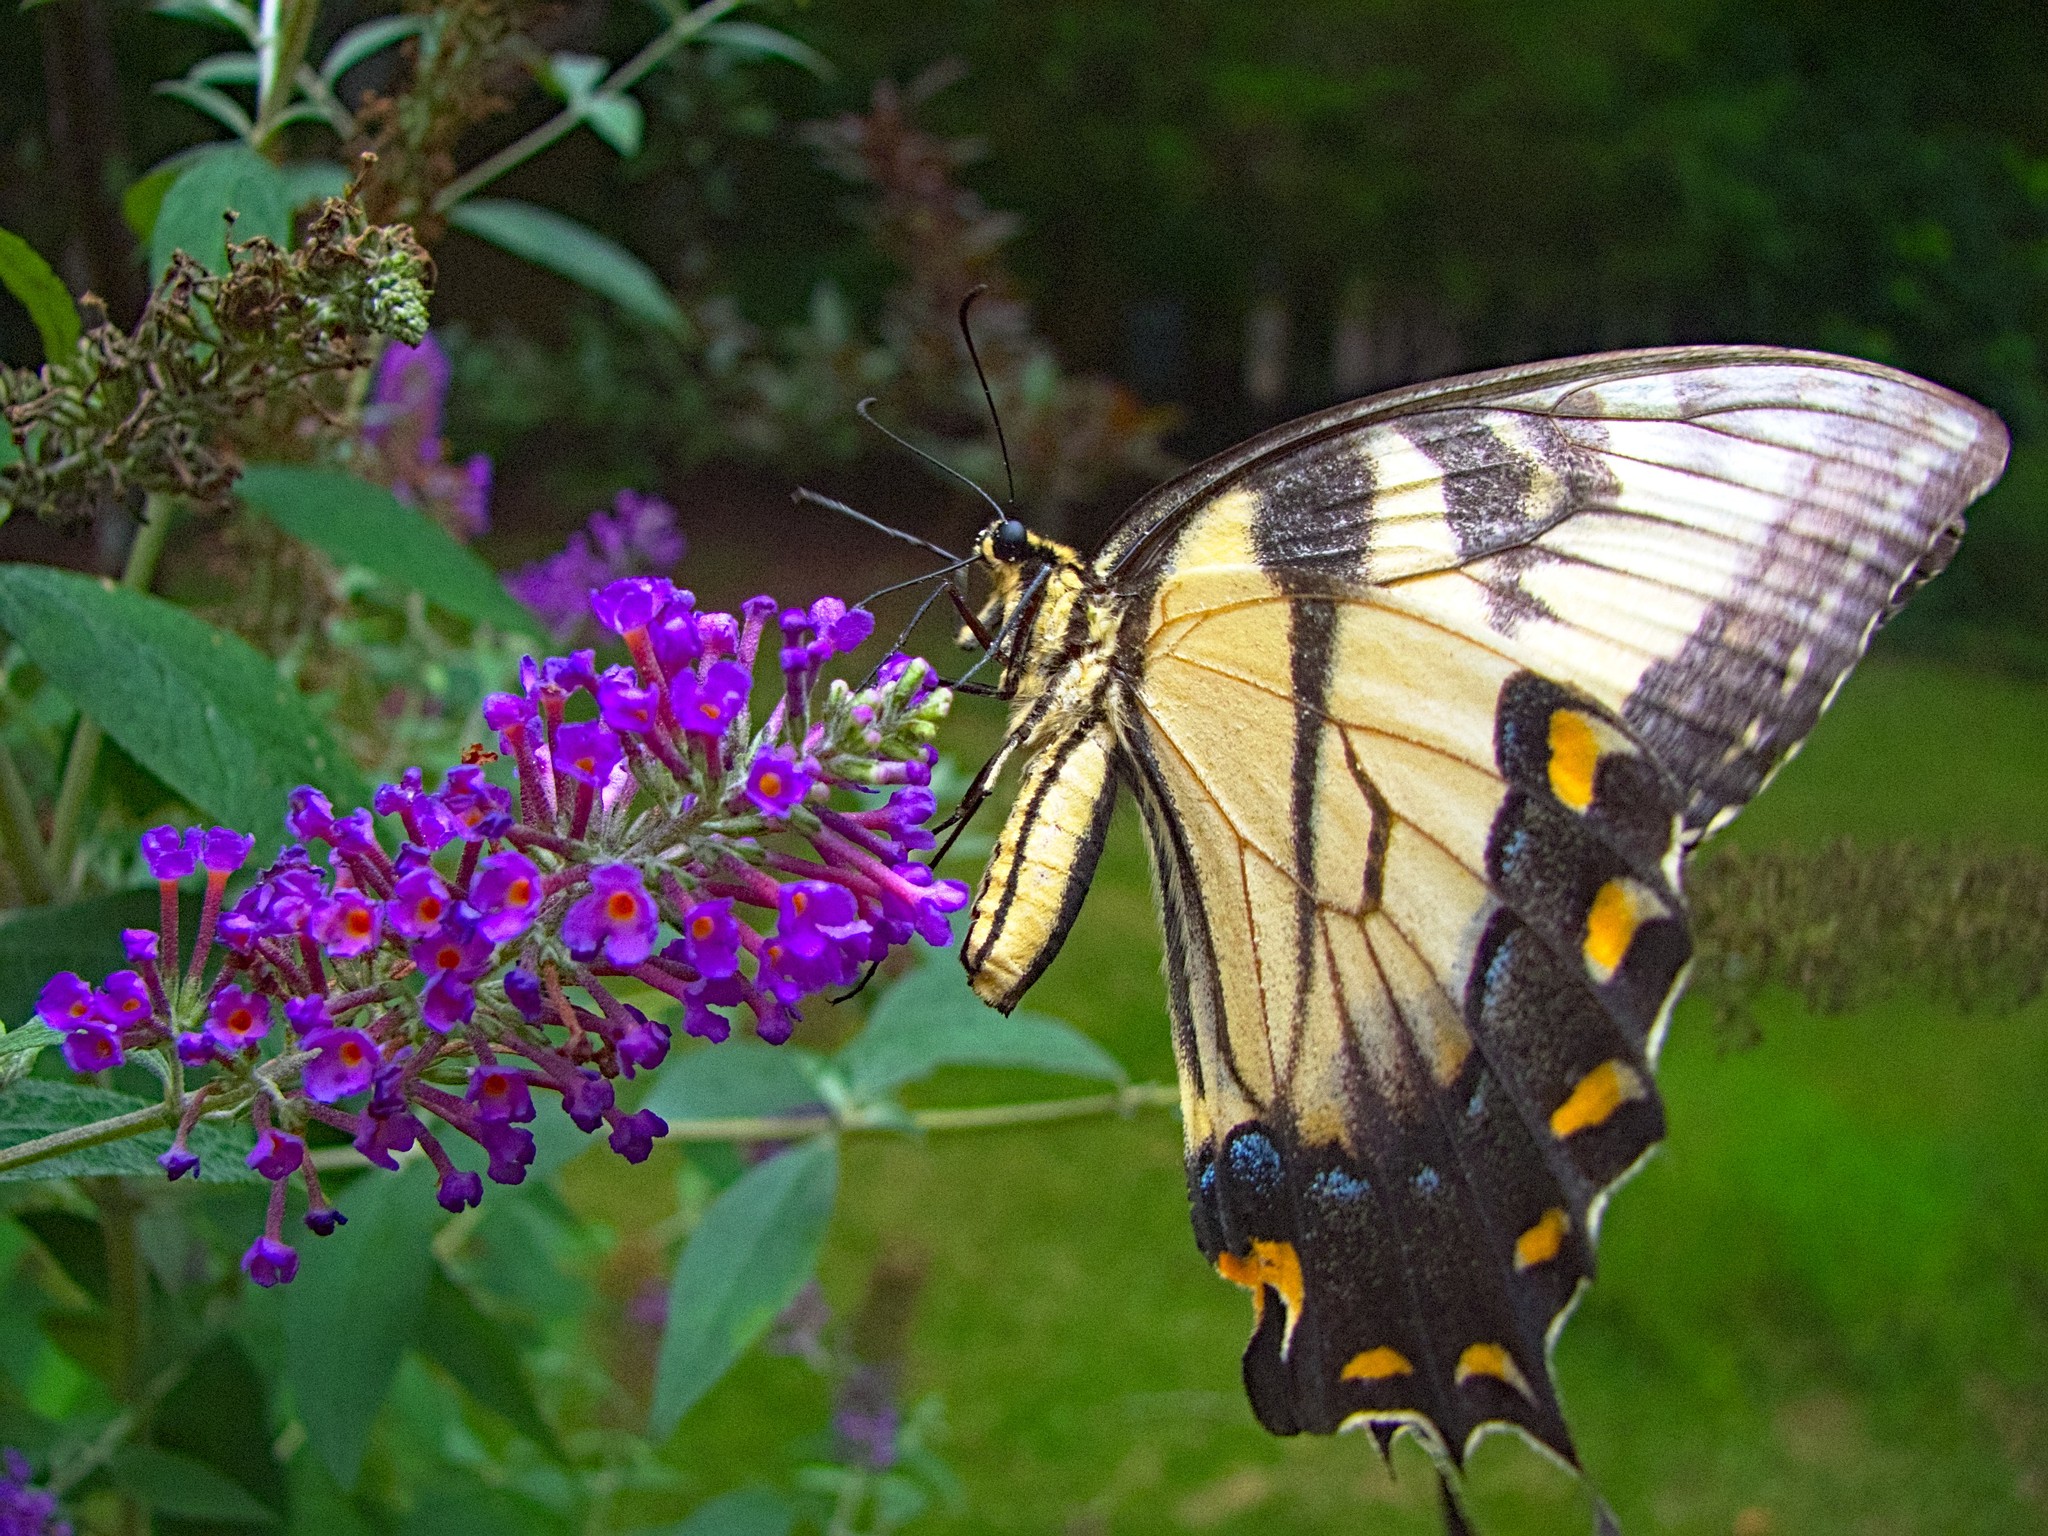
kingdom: Animalia
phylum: Arthropoda
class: Insecta
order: Lepidoptera
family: Papilionidae
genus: Papilio
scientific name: Papilio glaucus
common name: Tiger swallowtail
